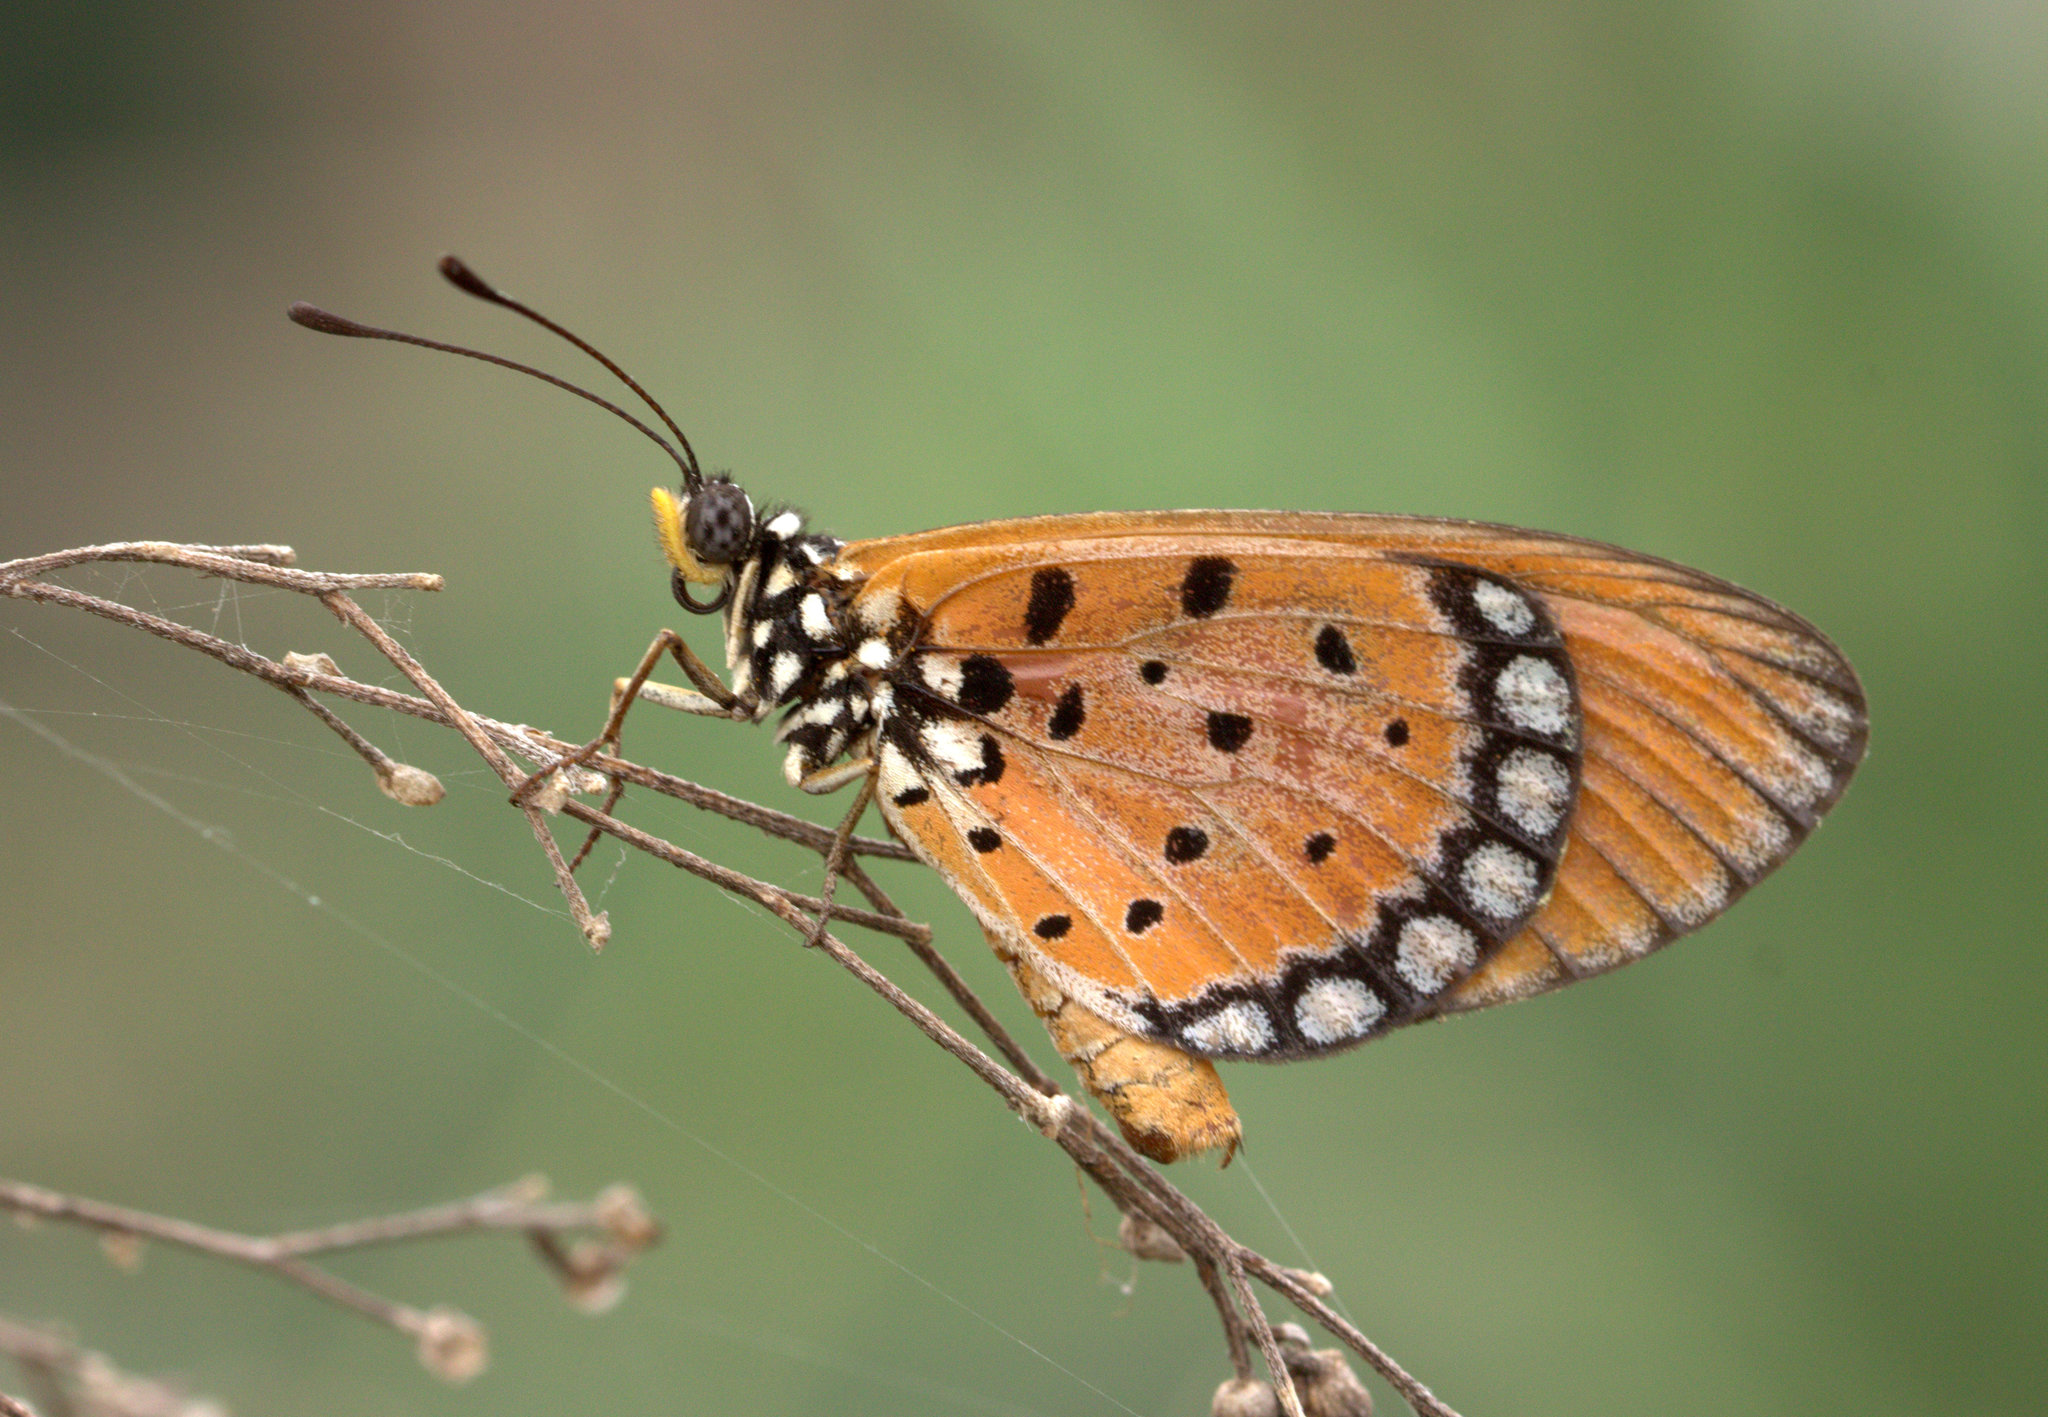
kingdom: Animalia
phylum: Arthropoda
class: Insecta
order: Lepidoptera
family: Nymphalidae
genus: Acraea
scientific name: Acraea terpsicore
